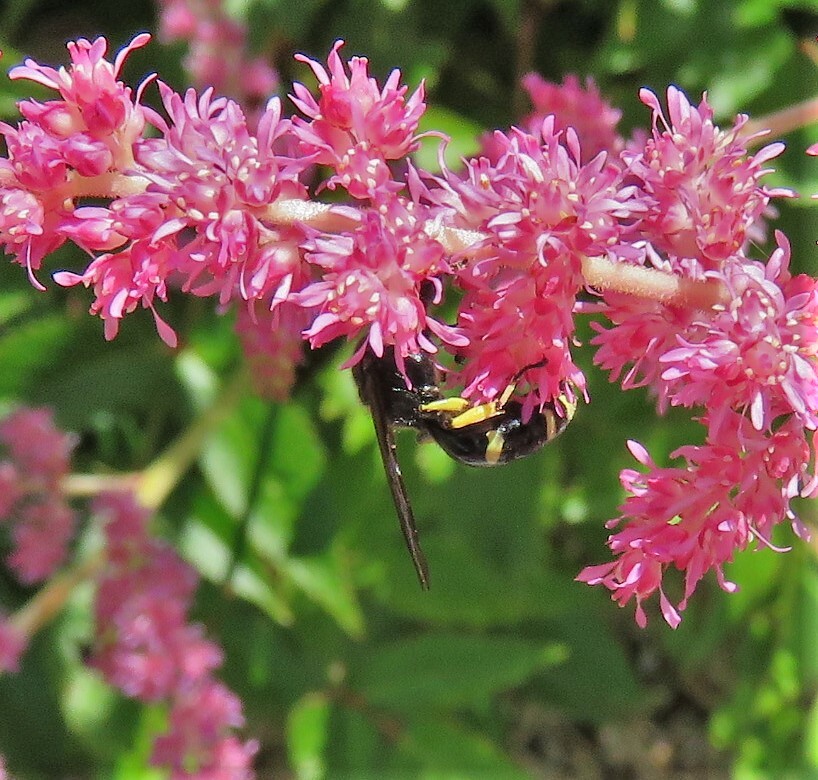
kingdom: Animalia
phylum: Arthropoda
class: Insecta
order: Hymenoptera
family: Crabronidae
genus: Ectemnius
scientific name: Ectemnius continuus
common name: Common ectemnius
